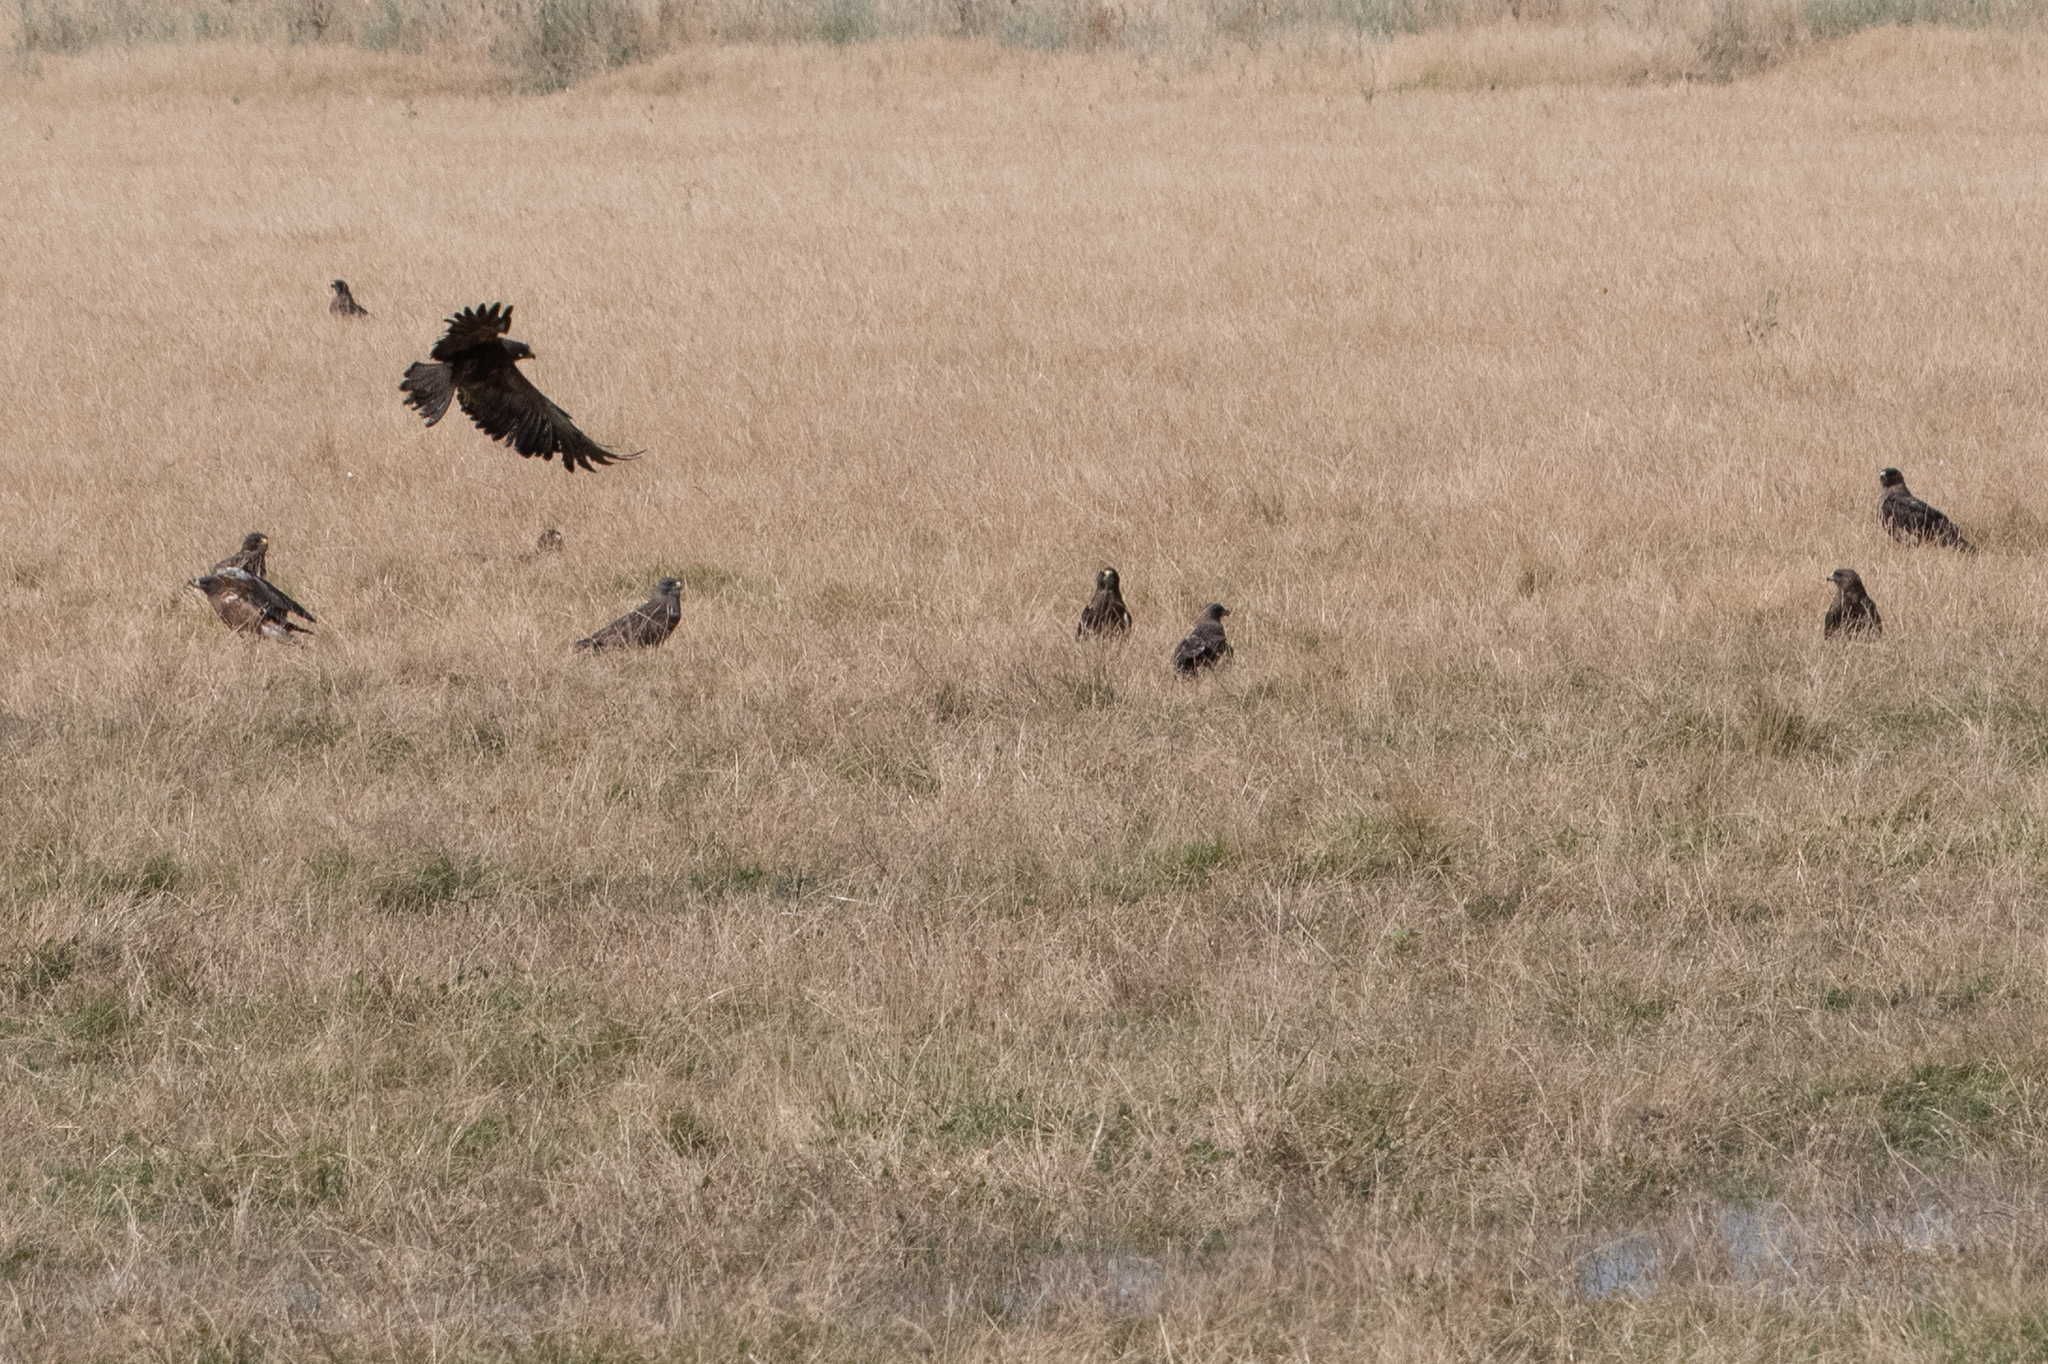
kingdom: Animalia
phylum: Chordata
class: Aves
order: Accipitriformes
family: Accipitridae
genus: Buteo
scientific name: Buteo swainsoni
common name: Swainson's hawk
